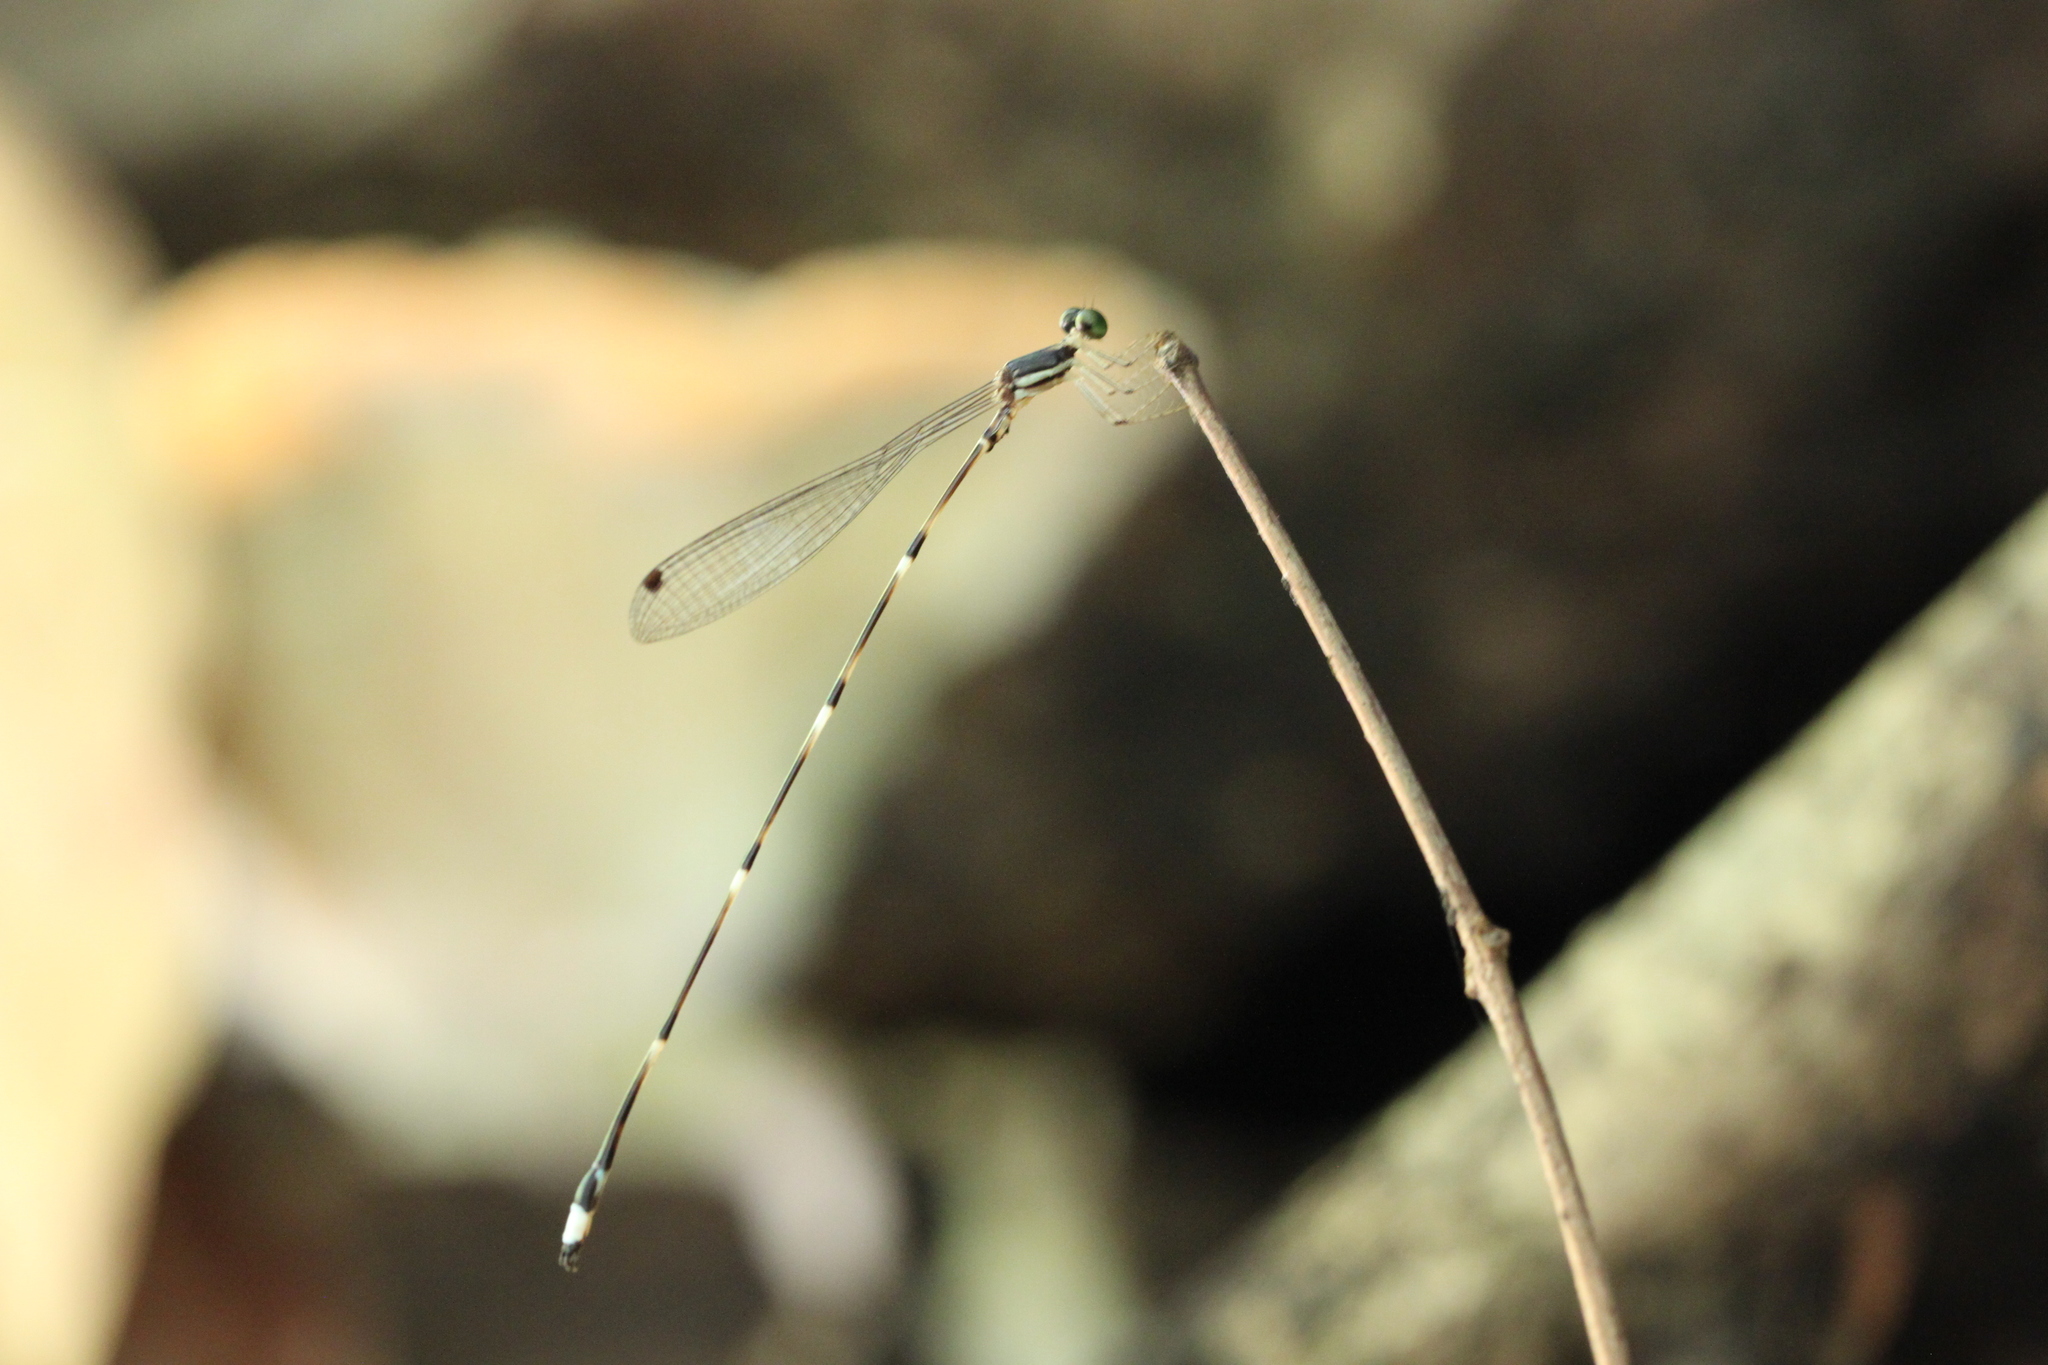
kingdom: Animalia
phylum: Arthropoda
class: Insecta
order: Odonata
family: Platystictidae
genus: Protosticta
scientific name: Protosticta trilobata
